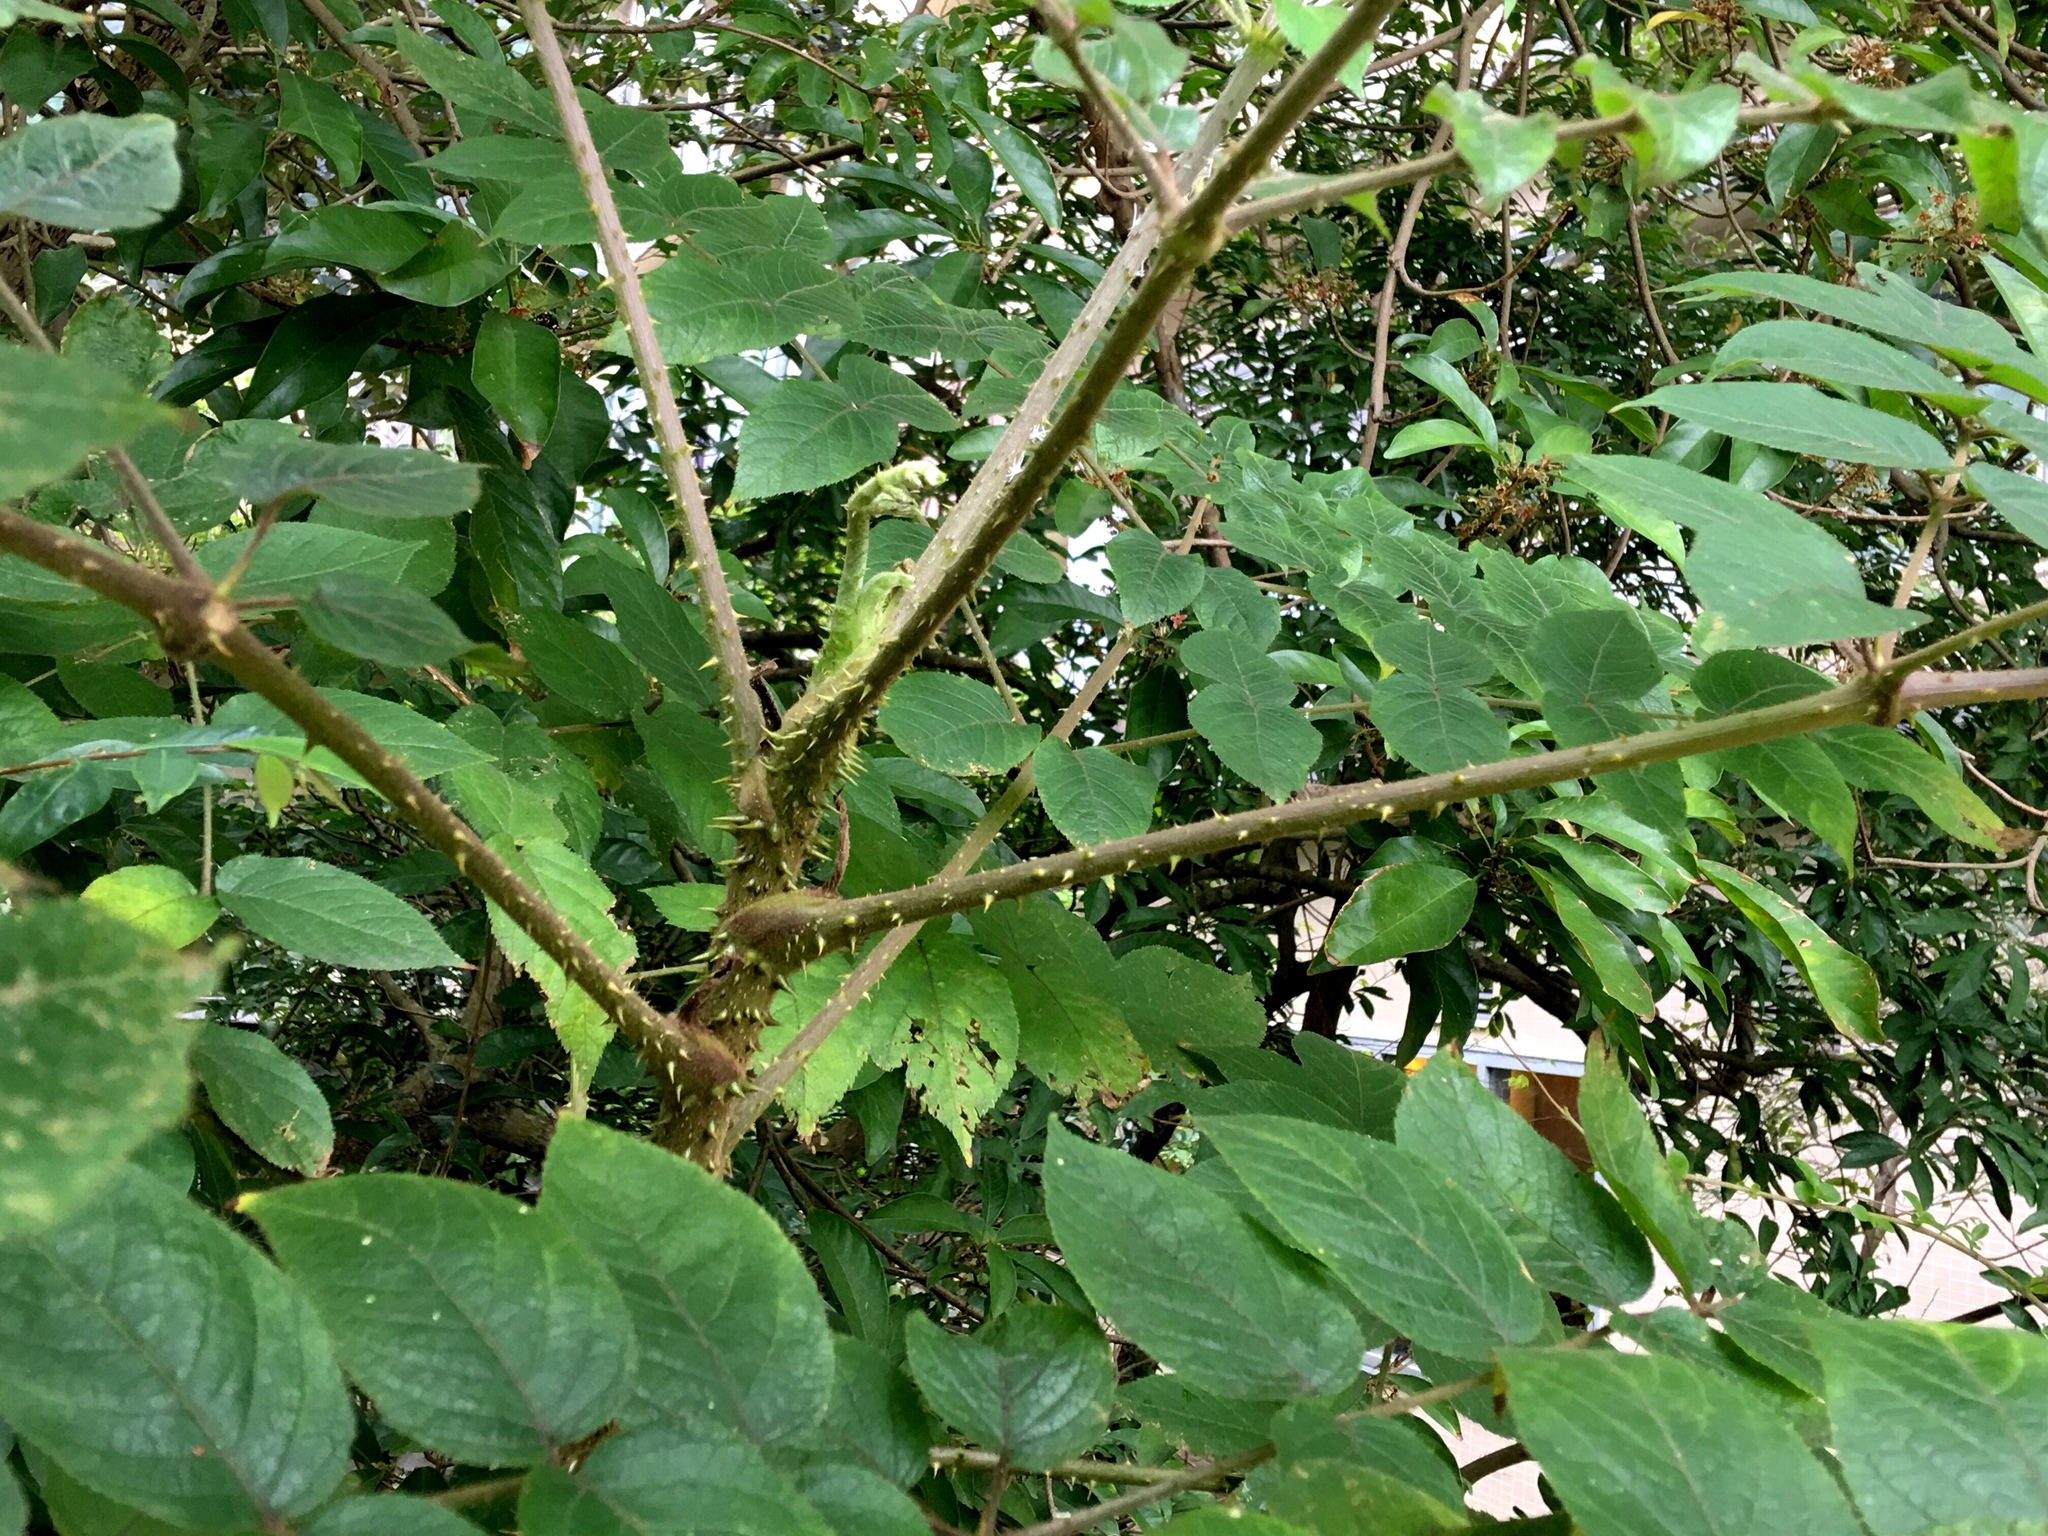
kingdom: Plantae
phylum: Tracheophyta
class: Magnoliopsida
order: Apiales
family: Araliaceae
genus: Aralia
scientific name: Aralia chinensis
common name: Chinese angelica-tree
